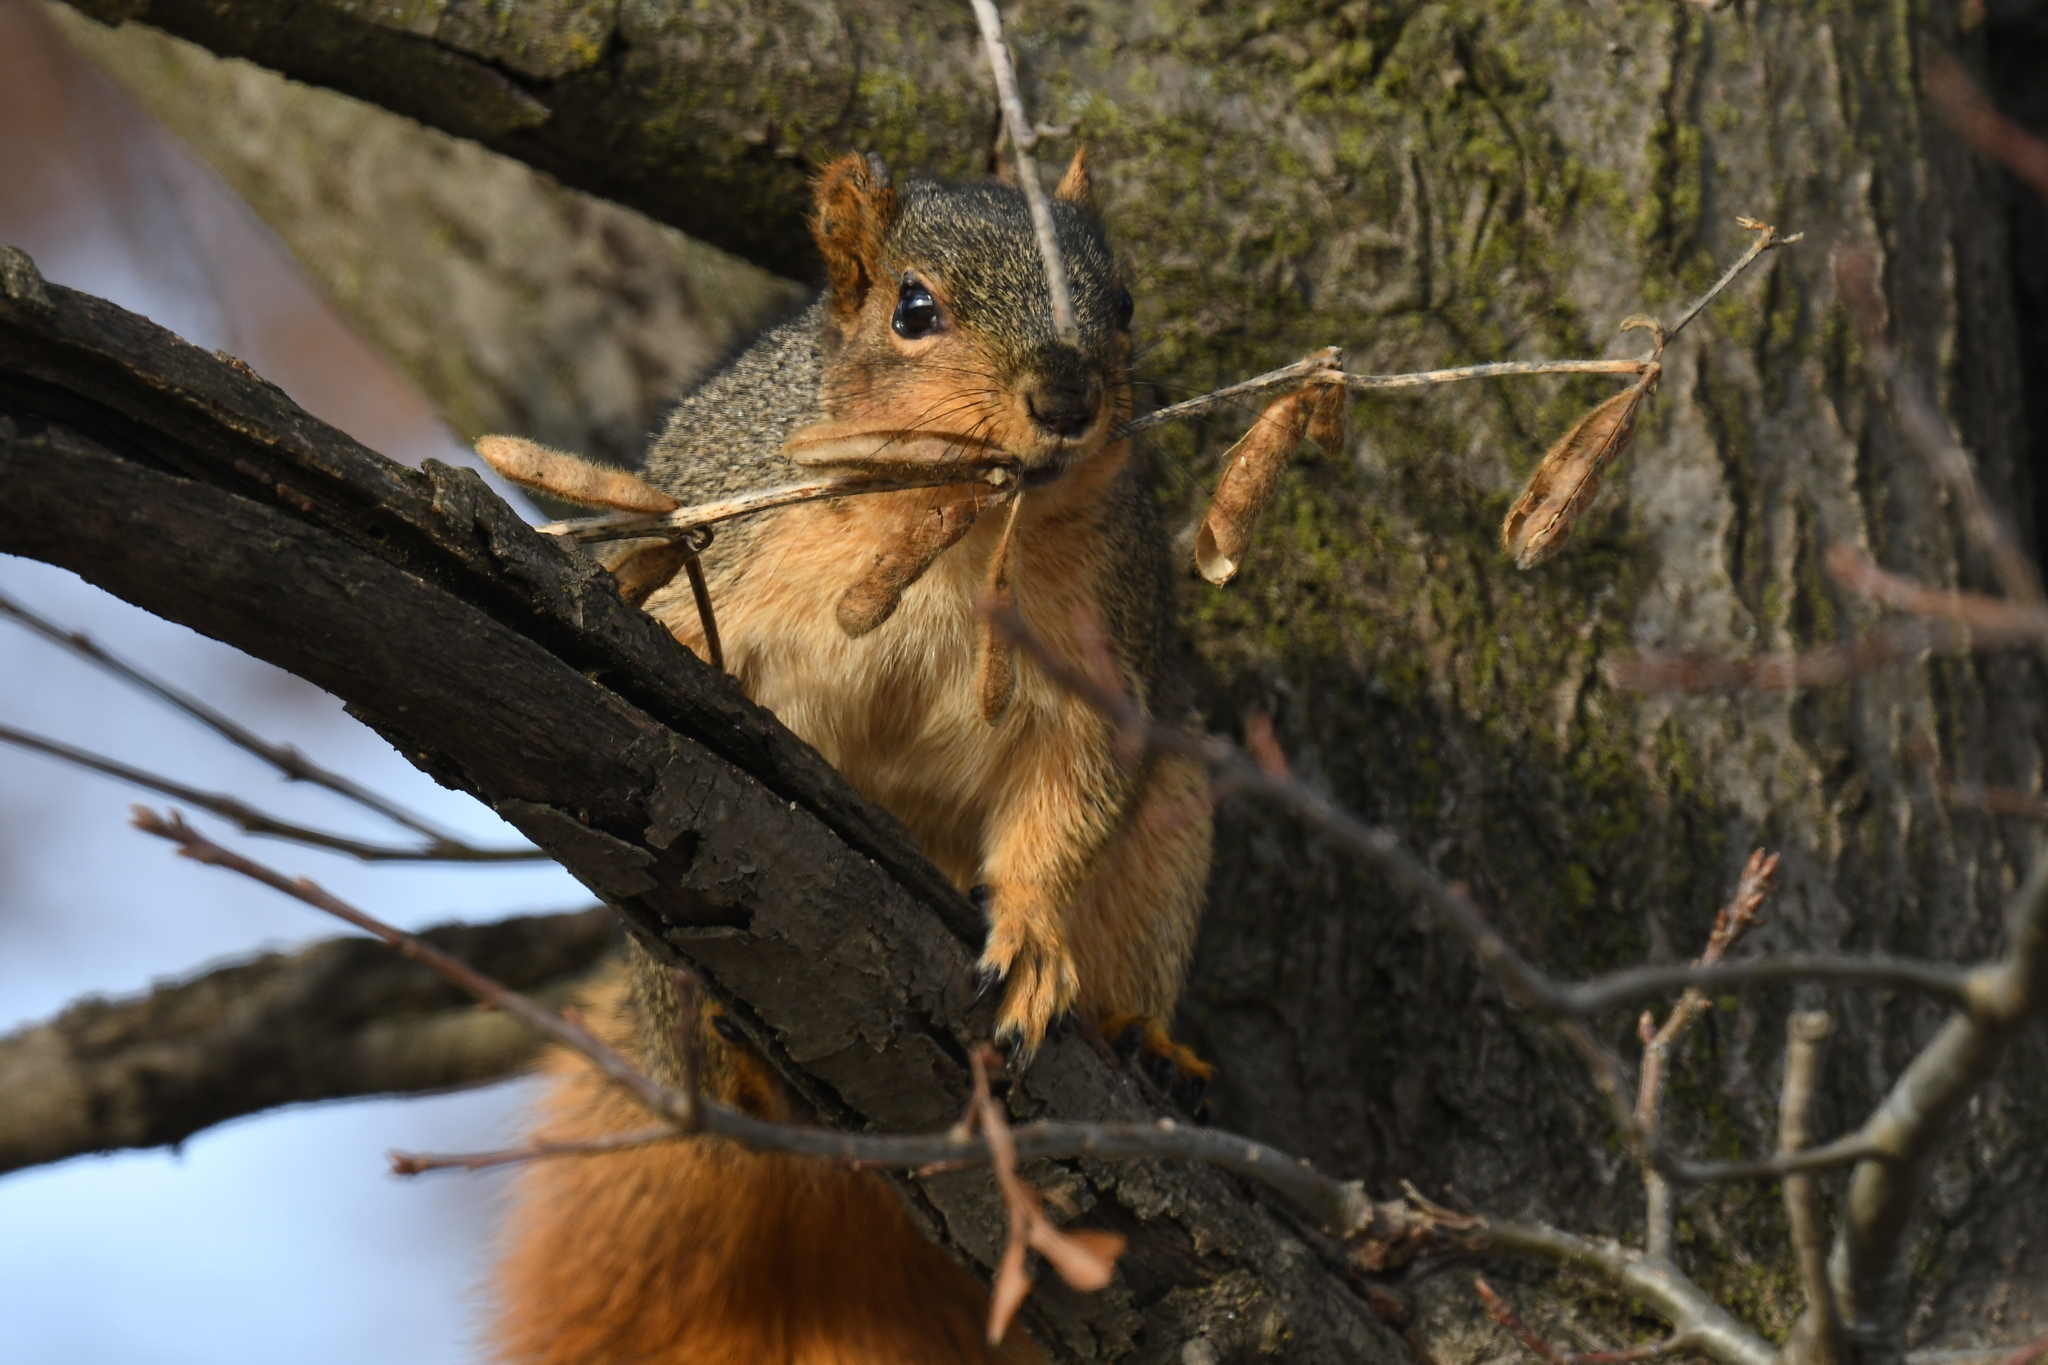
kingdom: Animalia
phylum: Chordata
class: Mammalia
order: Rodentia
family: Sciuridae
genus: Sciurus
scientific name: Sciurus niger
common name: Fox squirrel
